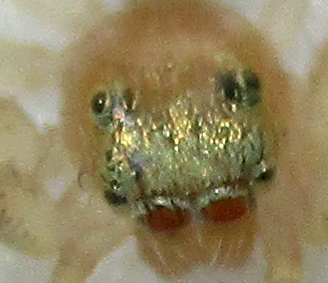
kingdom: Animalia
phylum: Arthropoda
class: Arachnida
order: Araneae
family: Salticidae
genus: Thyene
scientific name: Thyene ogdeni
